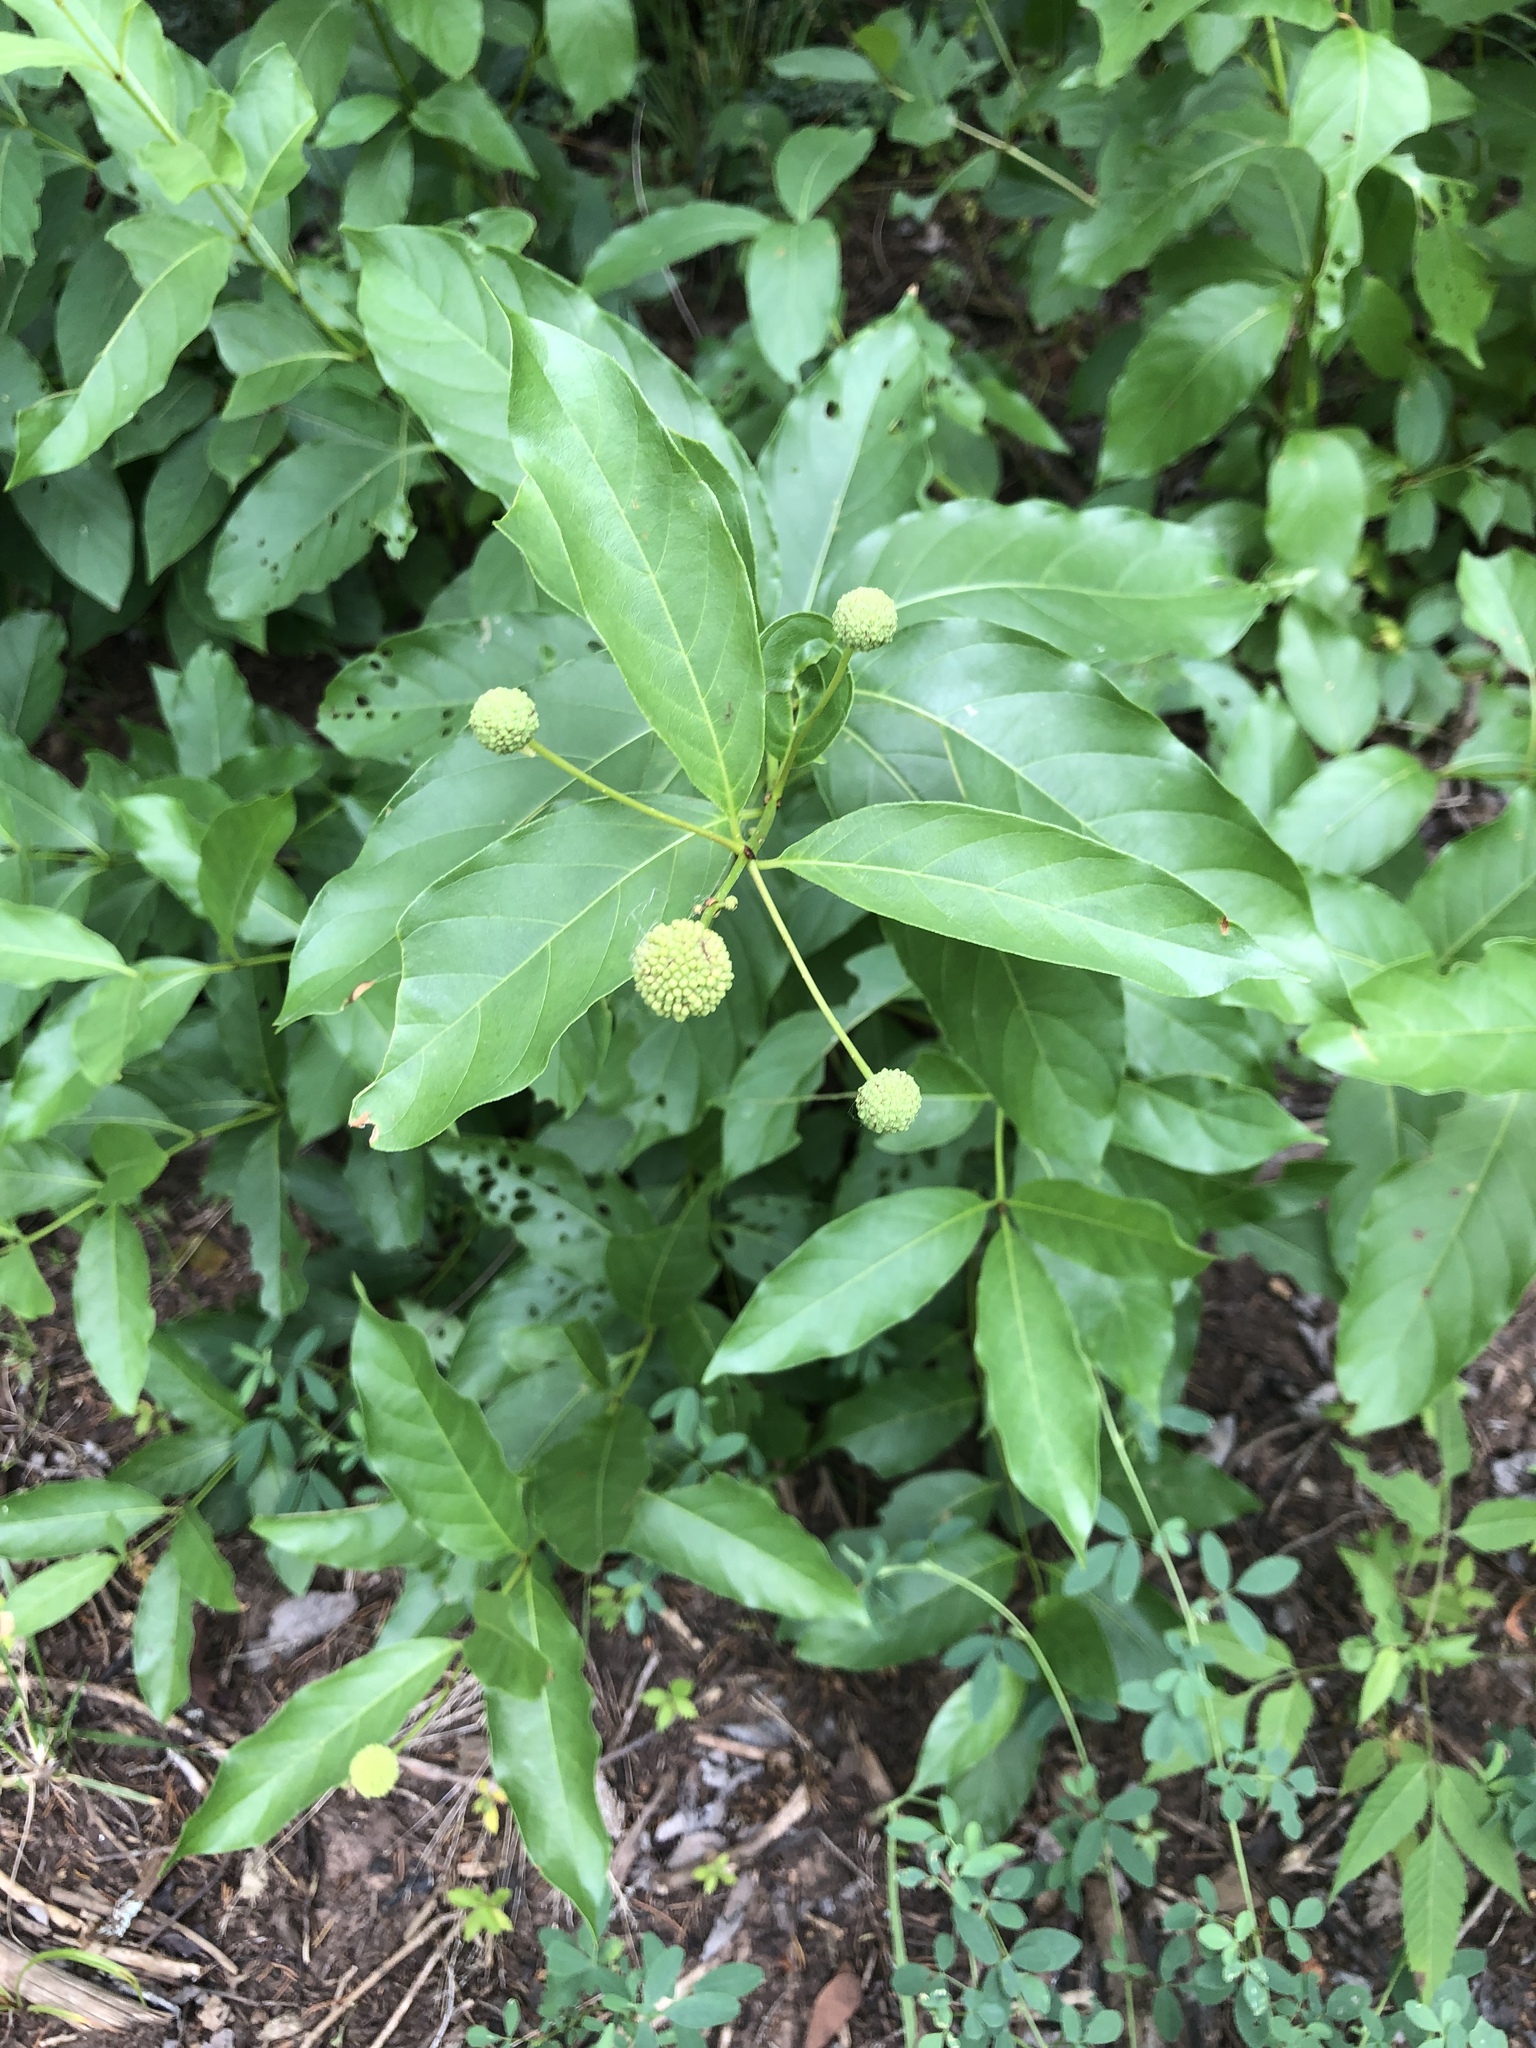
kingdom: Plantae
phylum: Tracheophyta
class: Magnoliopsida
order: Gentianales
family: Rubiaceae
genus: Cephalanthus
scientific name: Cephalanthus occidentalis
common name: Button-willow
